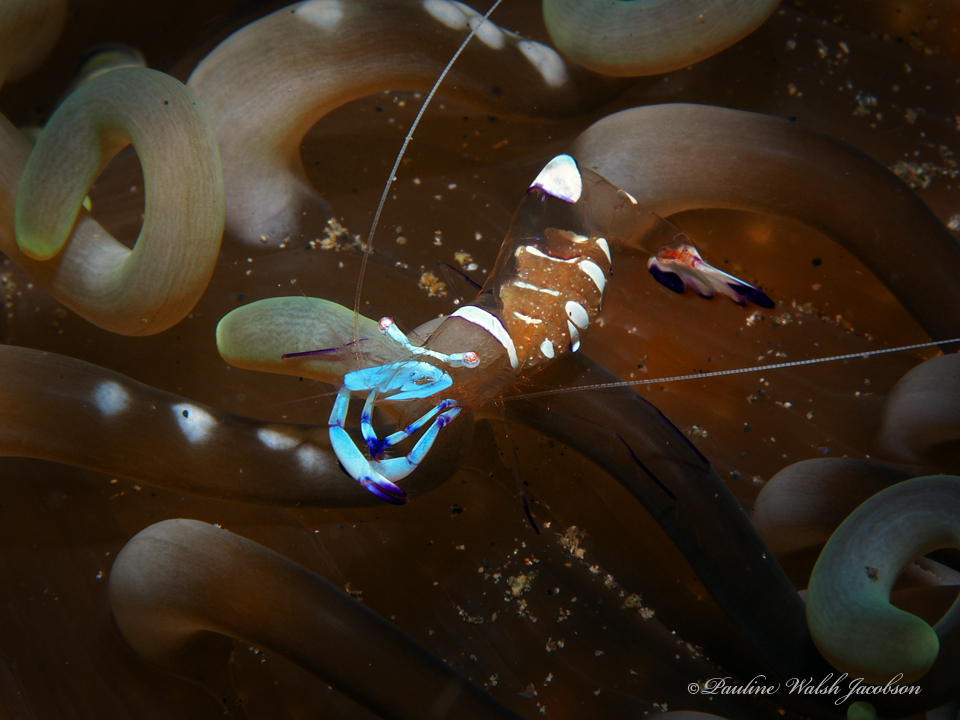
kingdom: Animalia
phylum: Arthropoda
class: Malacostraca
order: Decapoda
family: Palaemonidae
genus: Ancylomenes
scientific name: Ancylomenes magnificus
